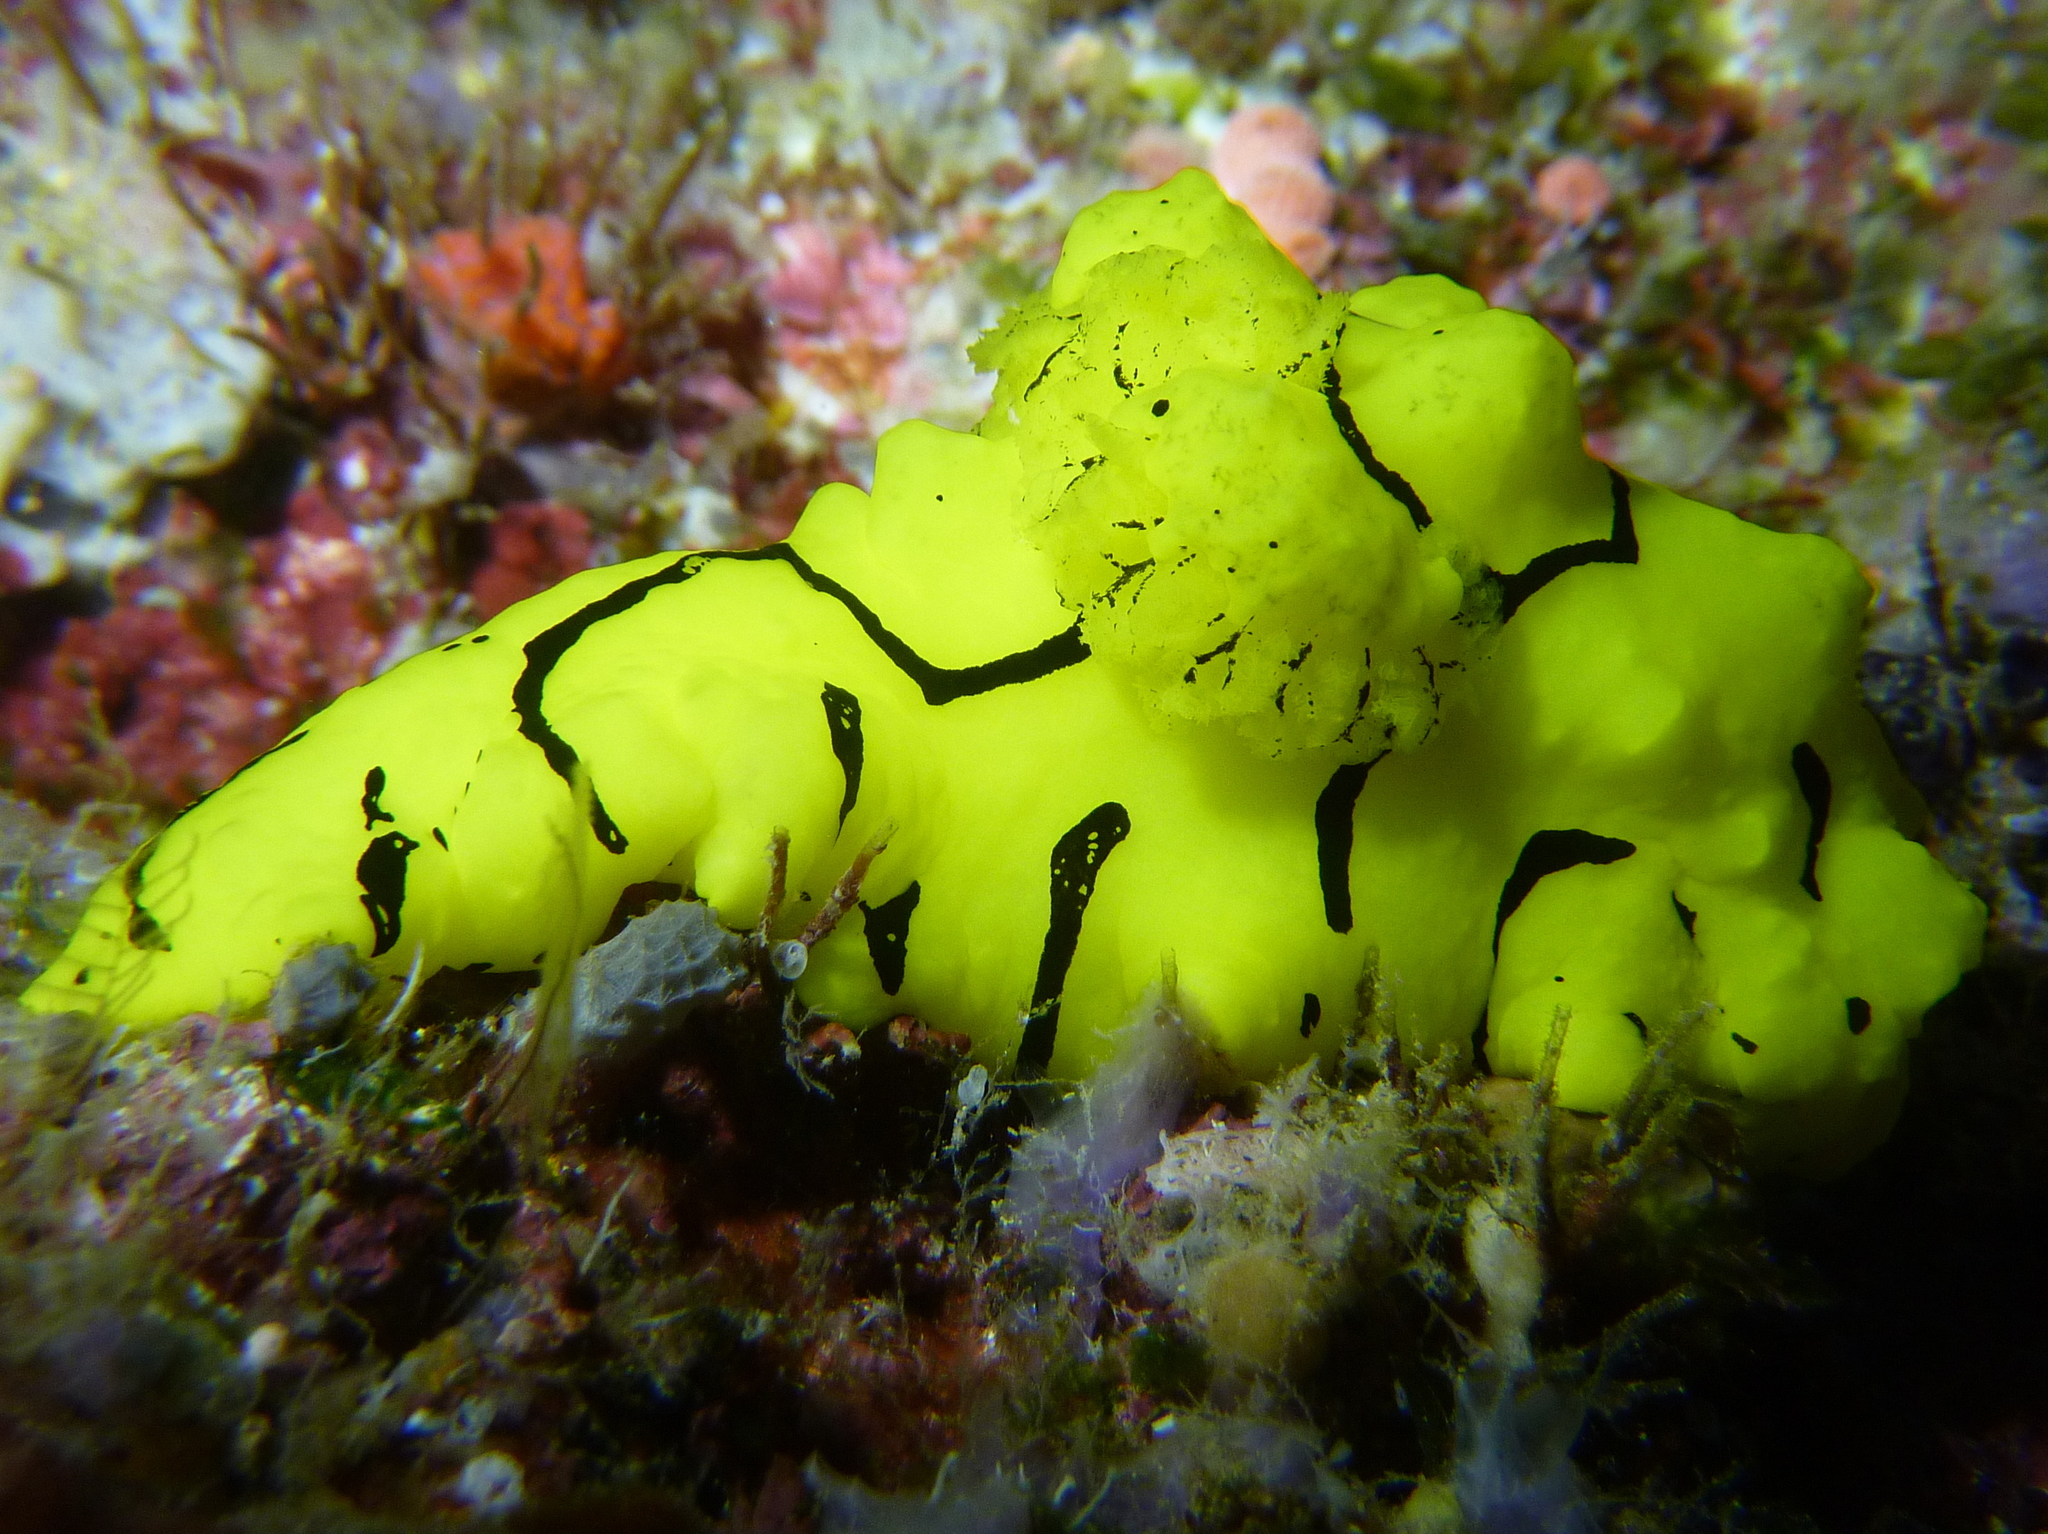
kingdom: Animalia
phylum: Mollusca
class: Gastropoda
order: Nudibranchia
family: Aegiridae
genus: Notodoris
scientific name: Notodoris minor
